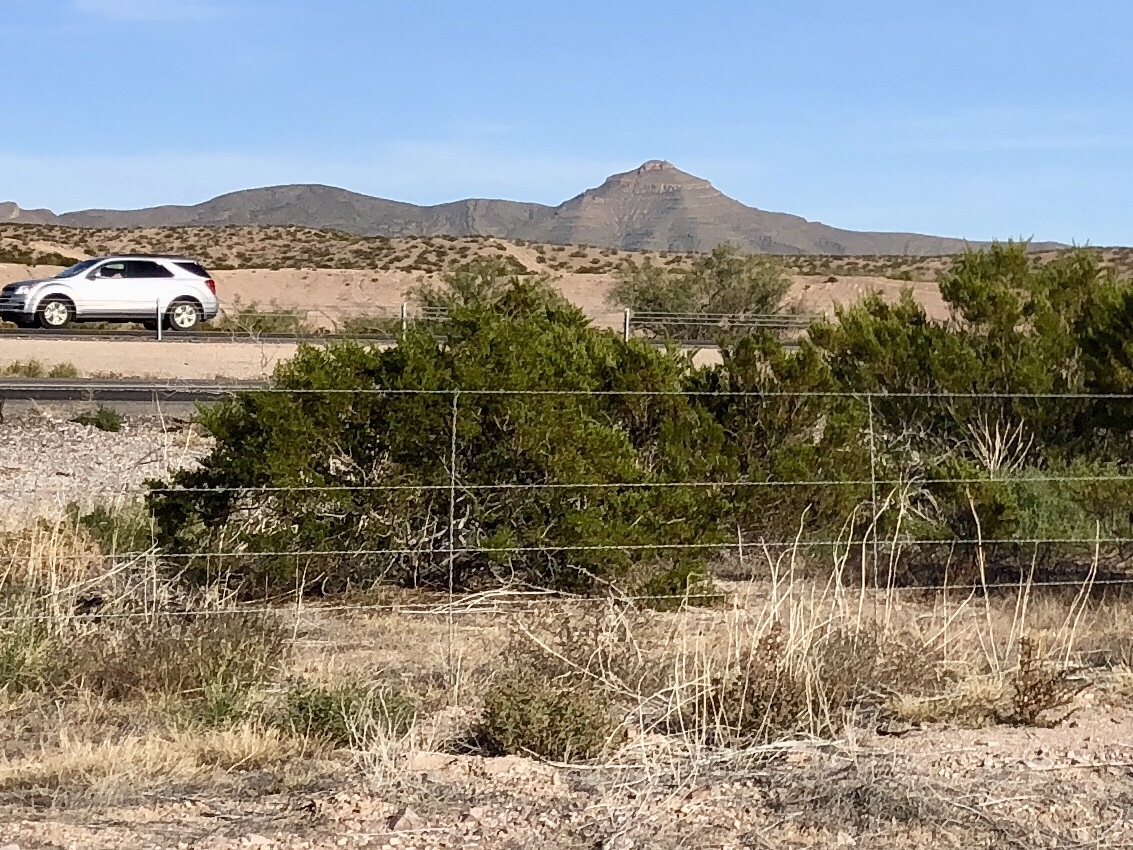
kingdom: Plantae
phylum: Tracheophyta
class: Magnoliopsida
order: Zygophyllales
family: Zygophyllaceae
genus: Larrea
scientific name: Larrea tridentata
